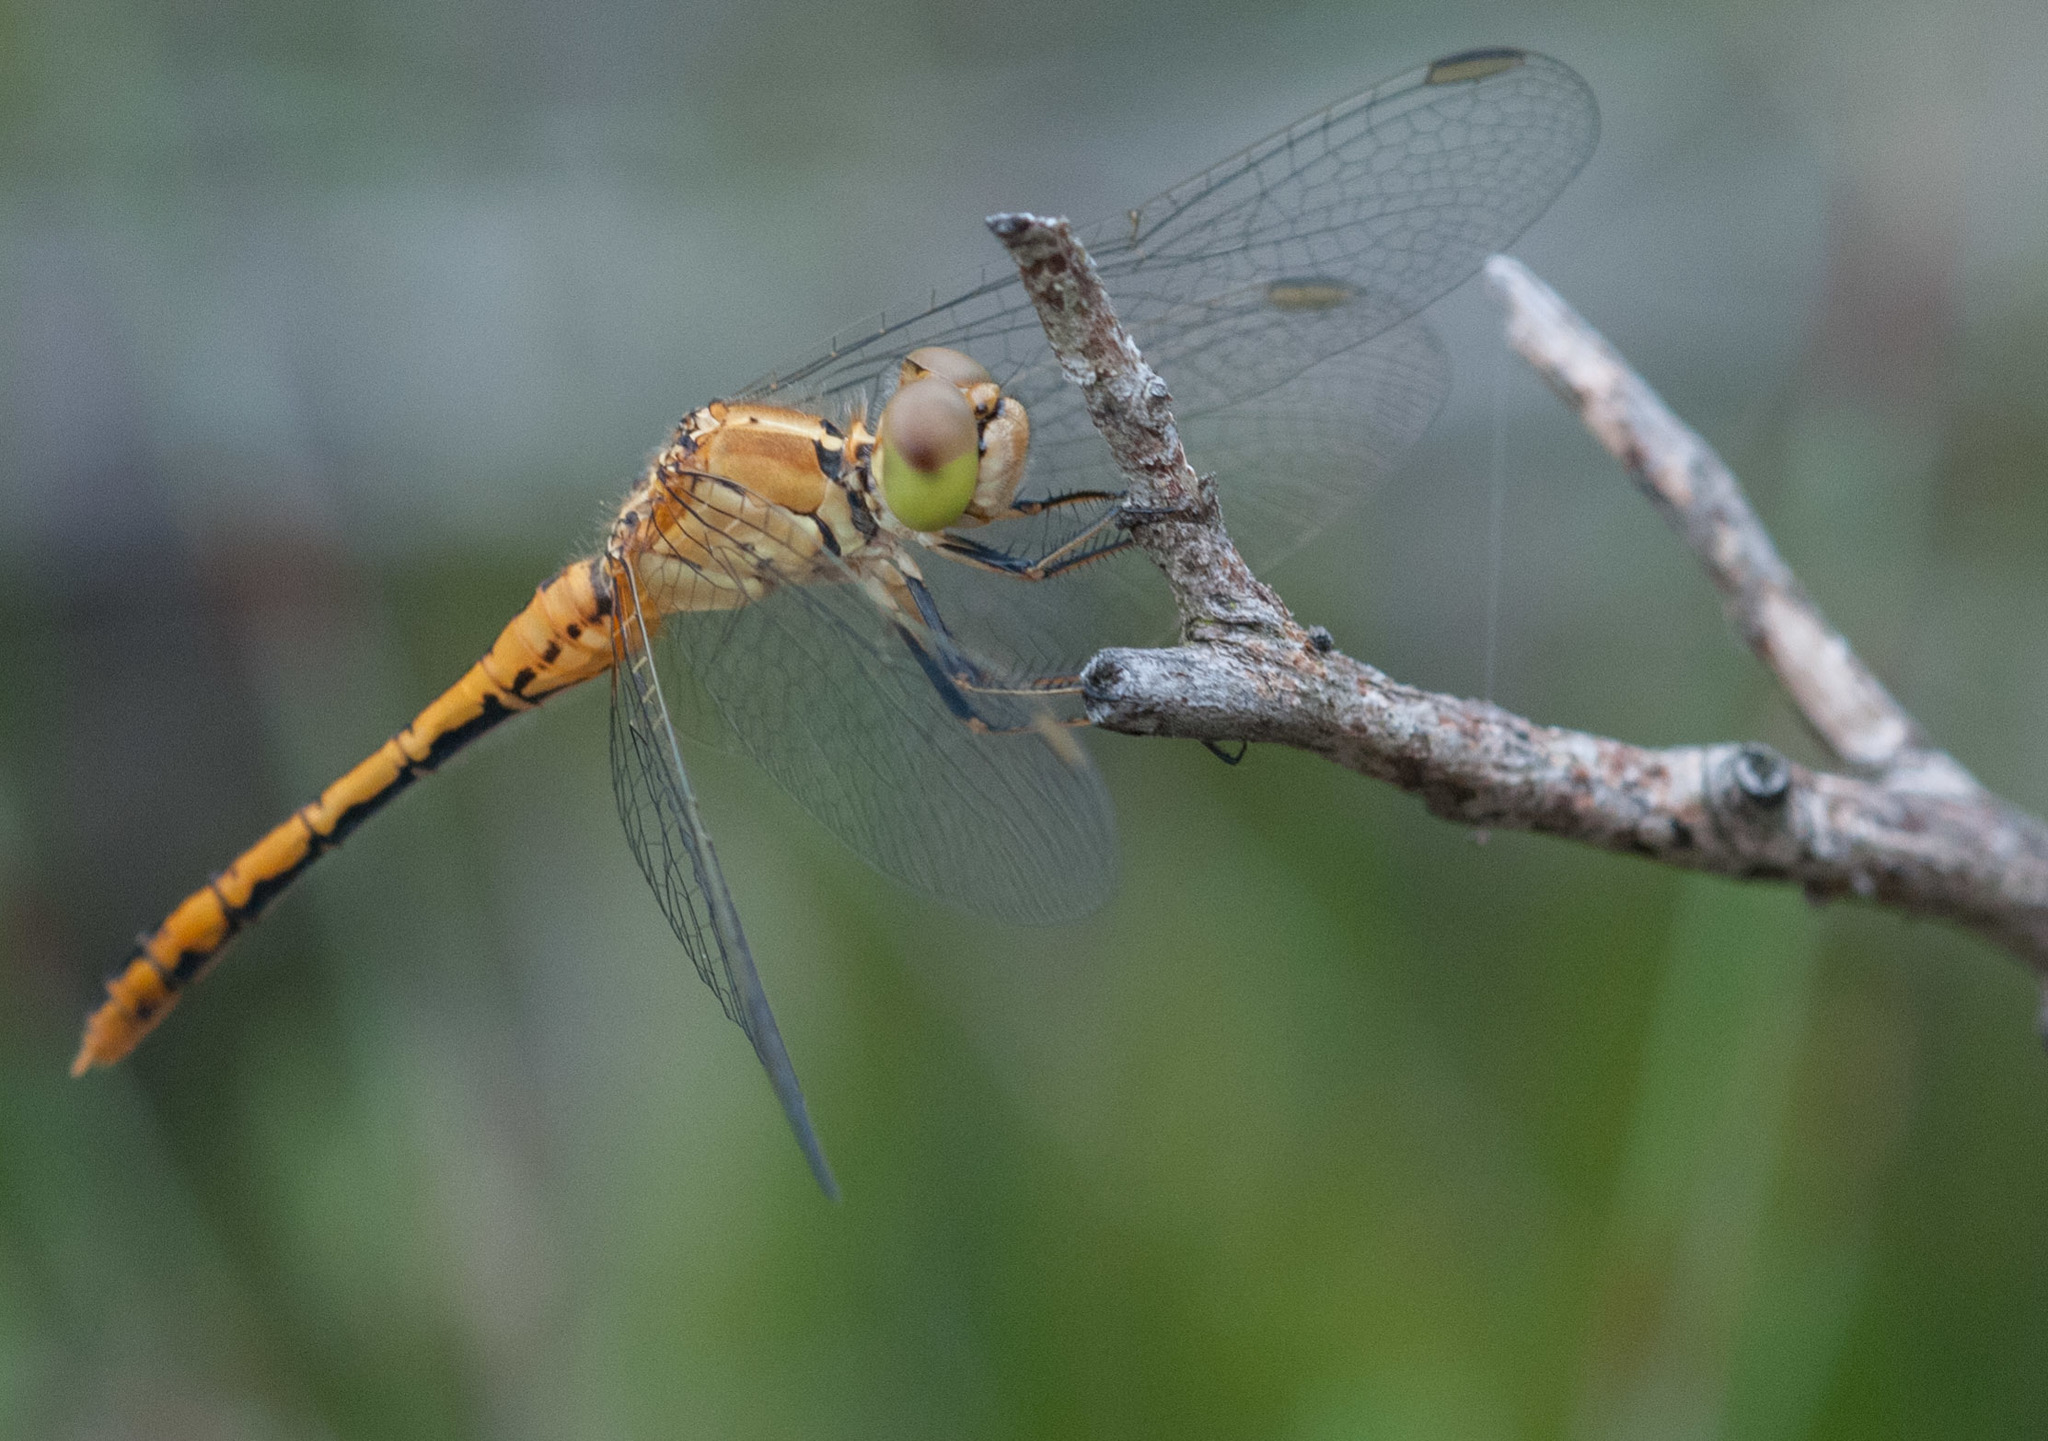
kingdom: Animalia
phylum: Arthropoda
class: Insecta
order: Odonata
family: Libellulidae
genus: Diplacodes
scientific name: Diplacodes bipunctata
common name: Red percher dragonfly
